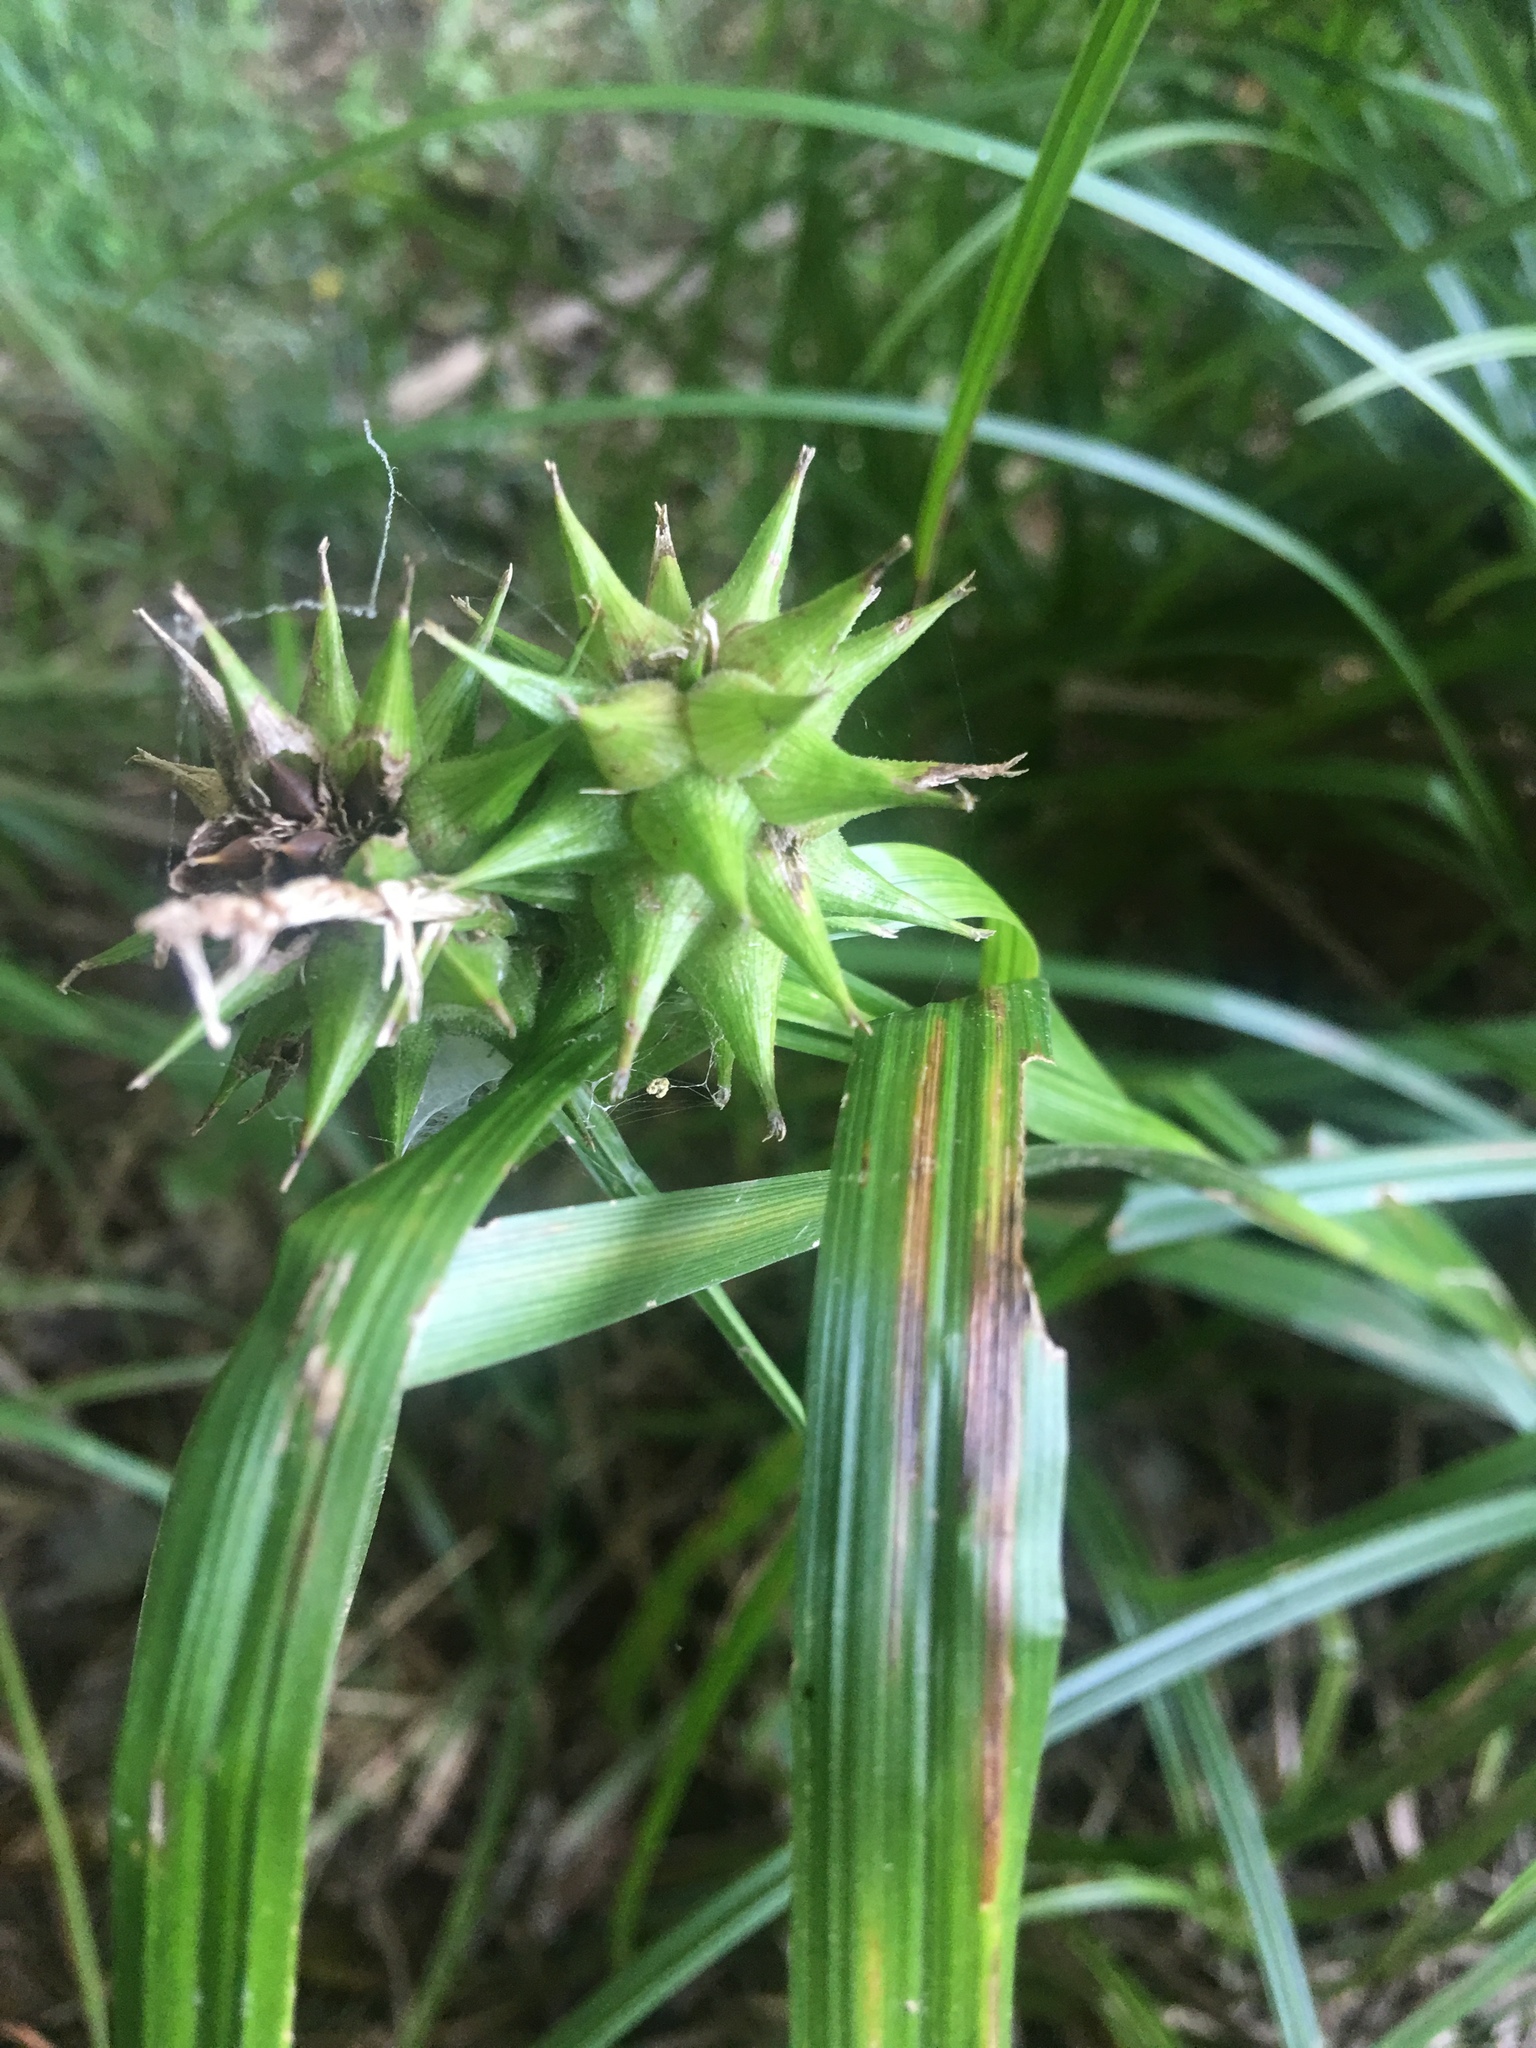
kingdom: Plantae
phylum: Tracheophyta
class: Liliopsida
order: Poales
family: Cyperaceae
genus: Carex
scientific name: Carex grayi
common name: Asa gray's sedge
